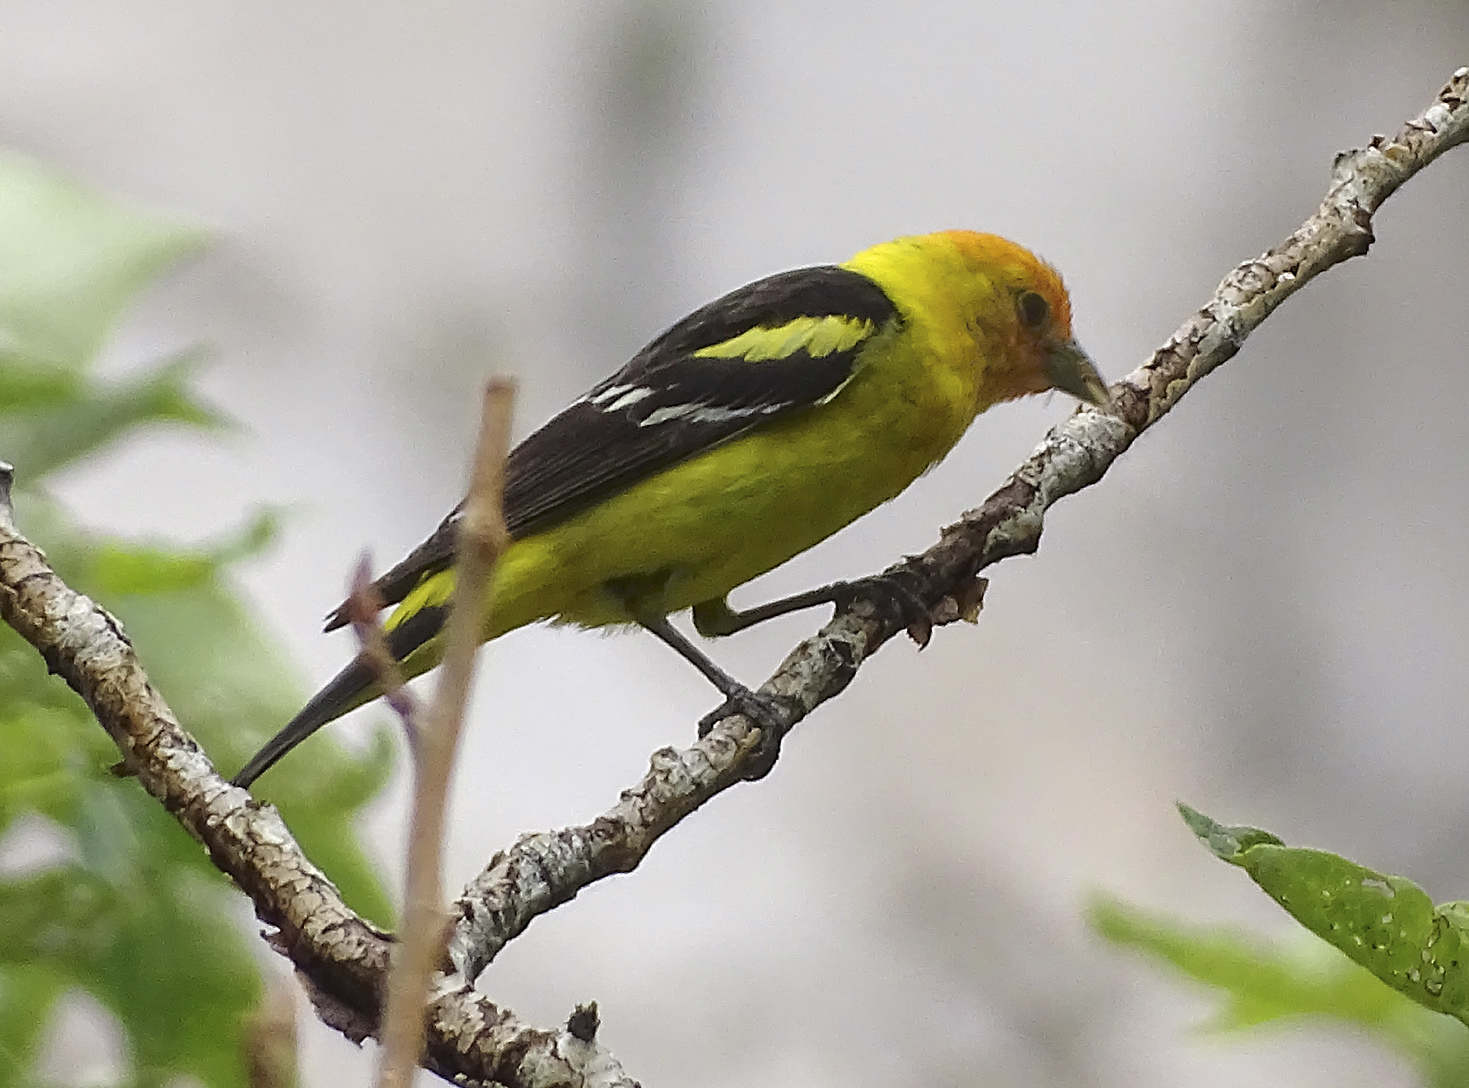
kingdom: Animalia
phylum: Chordata
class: Aves
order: Passeriformes
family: Cardinalidae
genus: Piranga
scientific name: Piranga ludoviciana
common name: Western tanager
